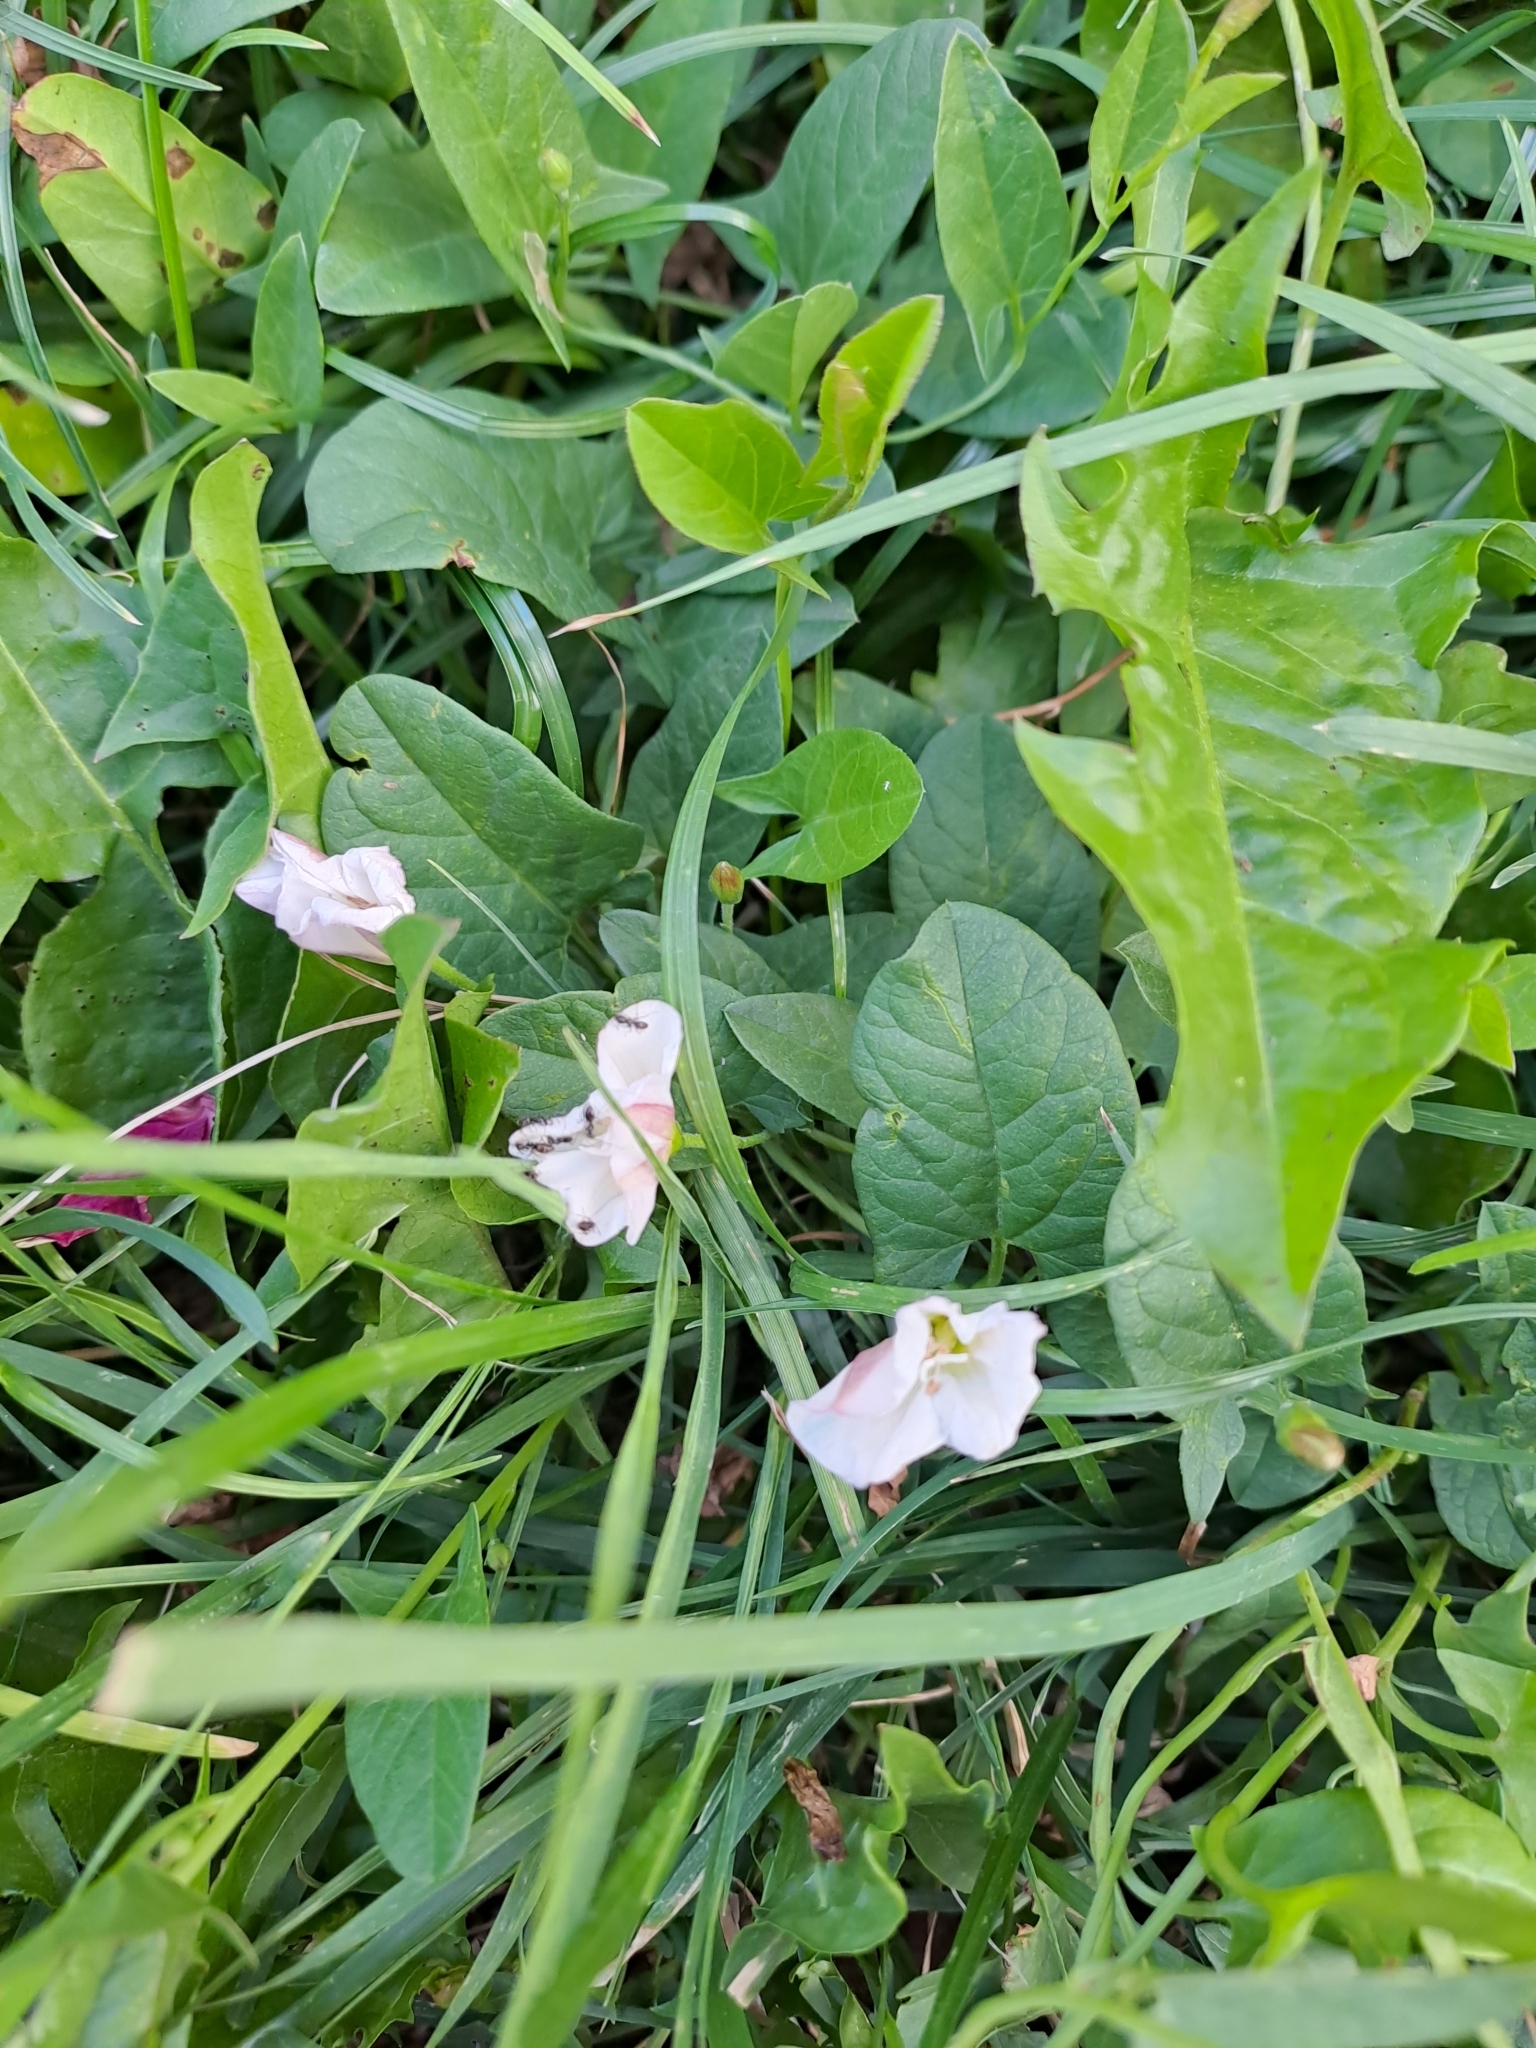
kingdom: Plantae
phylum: Tracheophyta
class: Magnoliopsida
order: Solanales
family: Convolvulaceae
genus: Convolvulus
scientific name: Convolvulus arvensis
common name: Field bindweed
